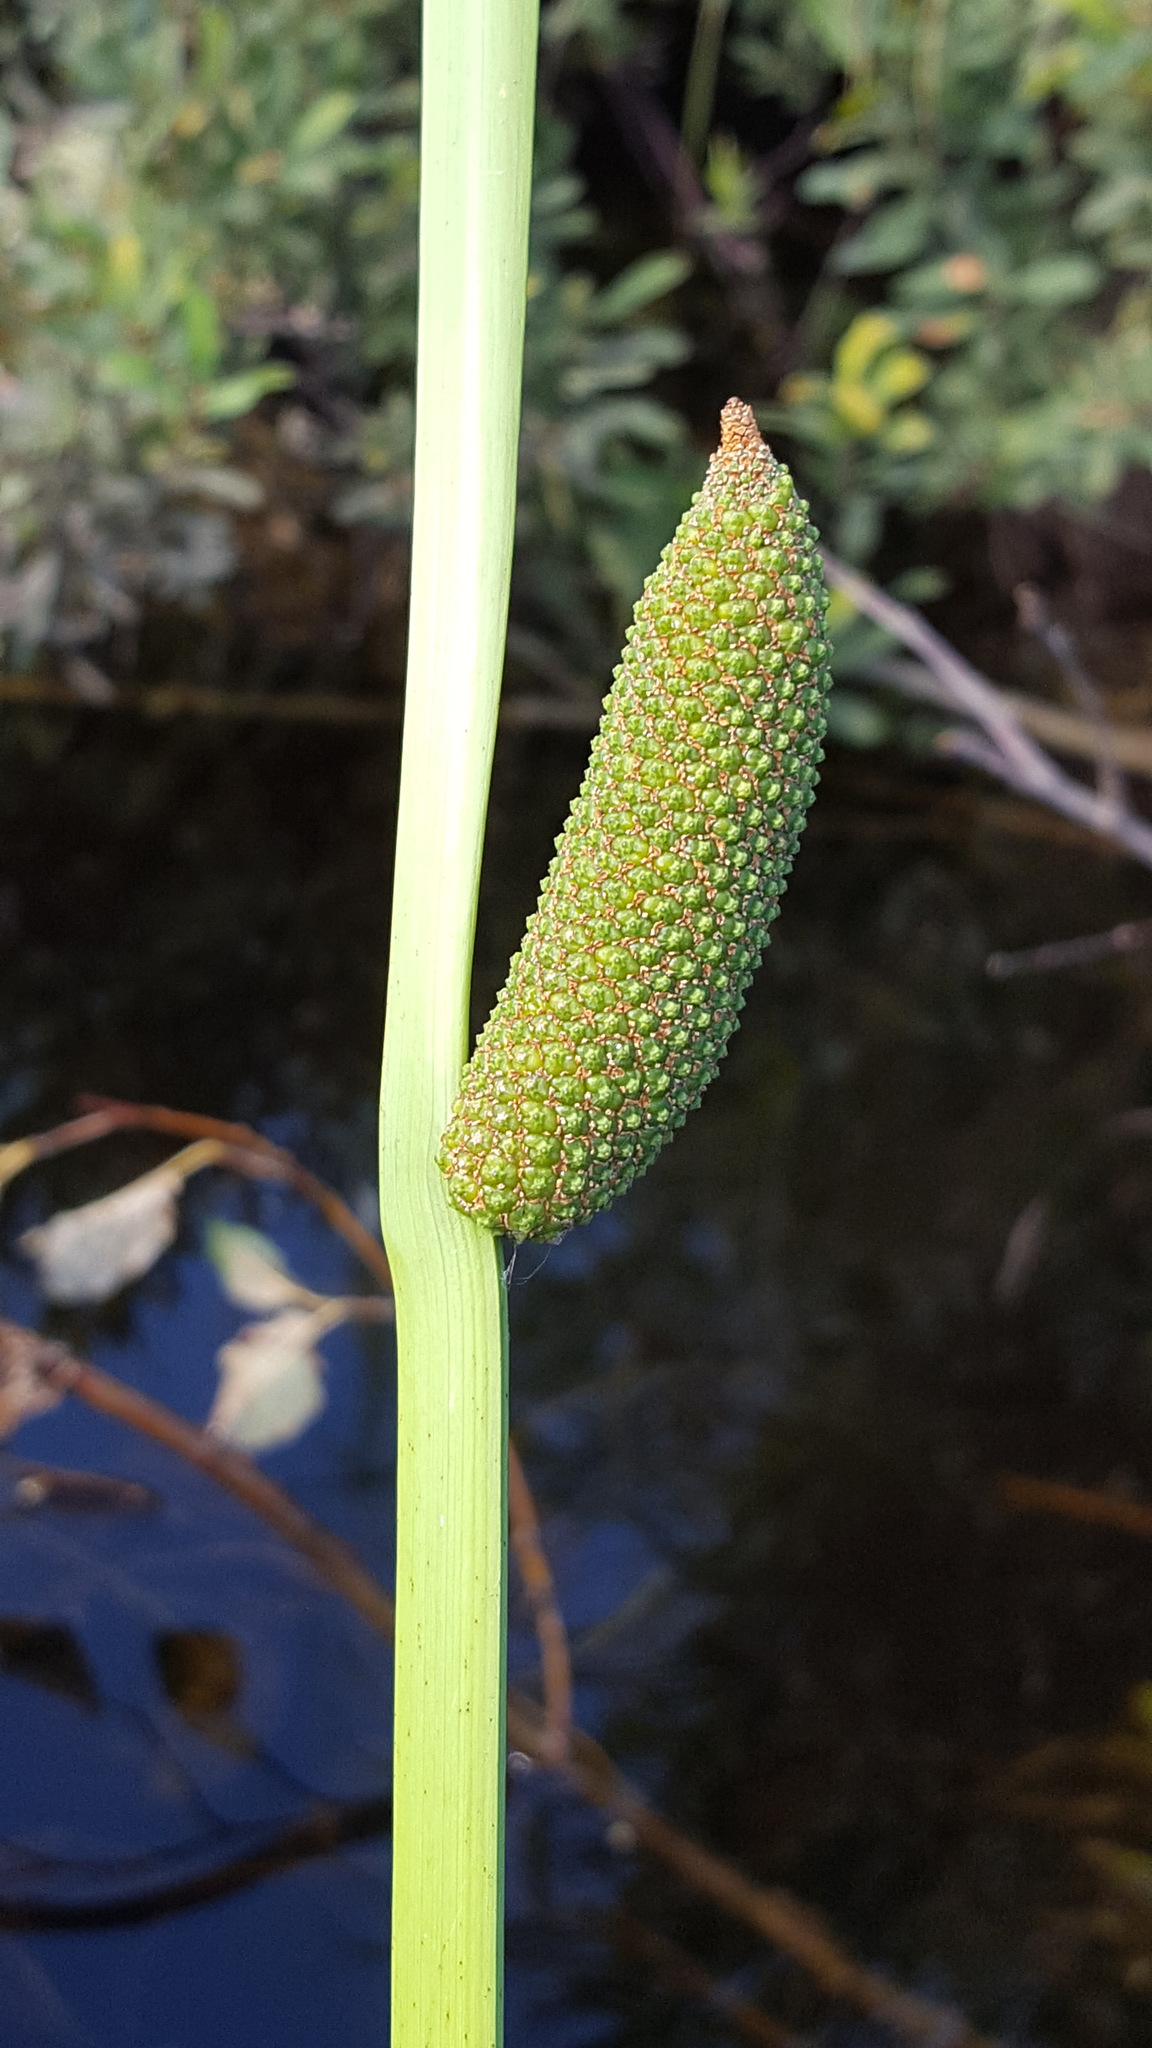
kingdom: Plantae
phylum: Tracheophyta
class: Liliopsida
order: Acorales
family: Acoraceae
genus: Acorus
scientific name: Acorus calamus
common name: Sweet-flag
